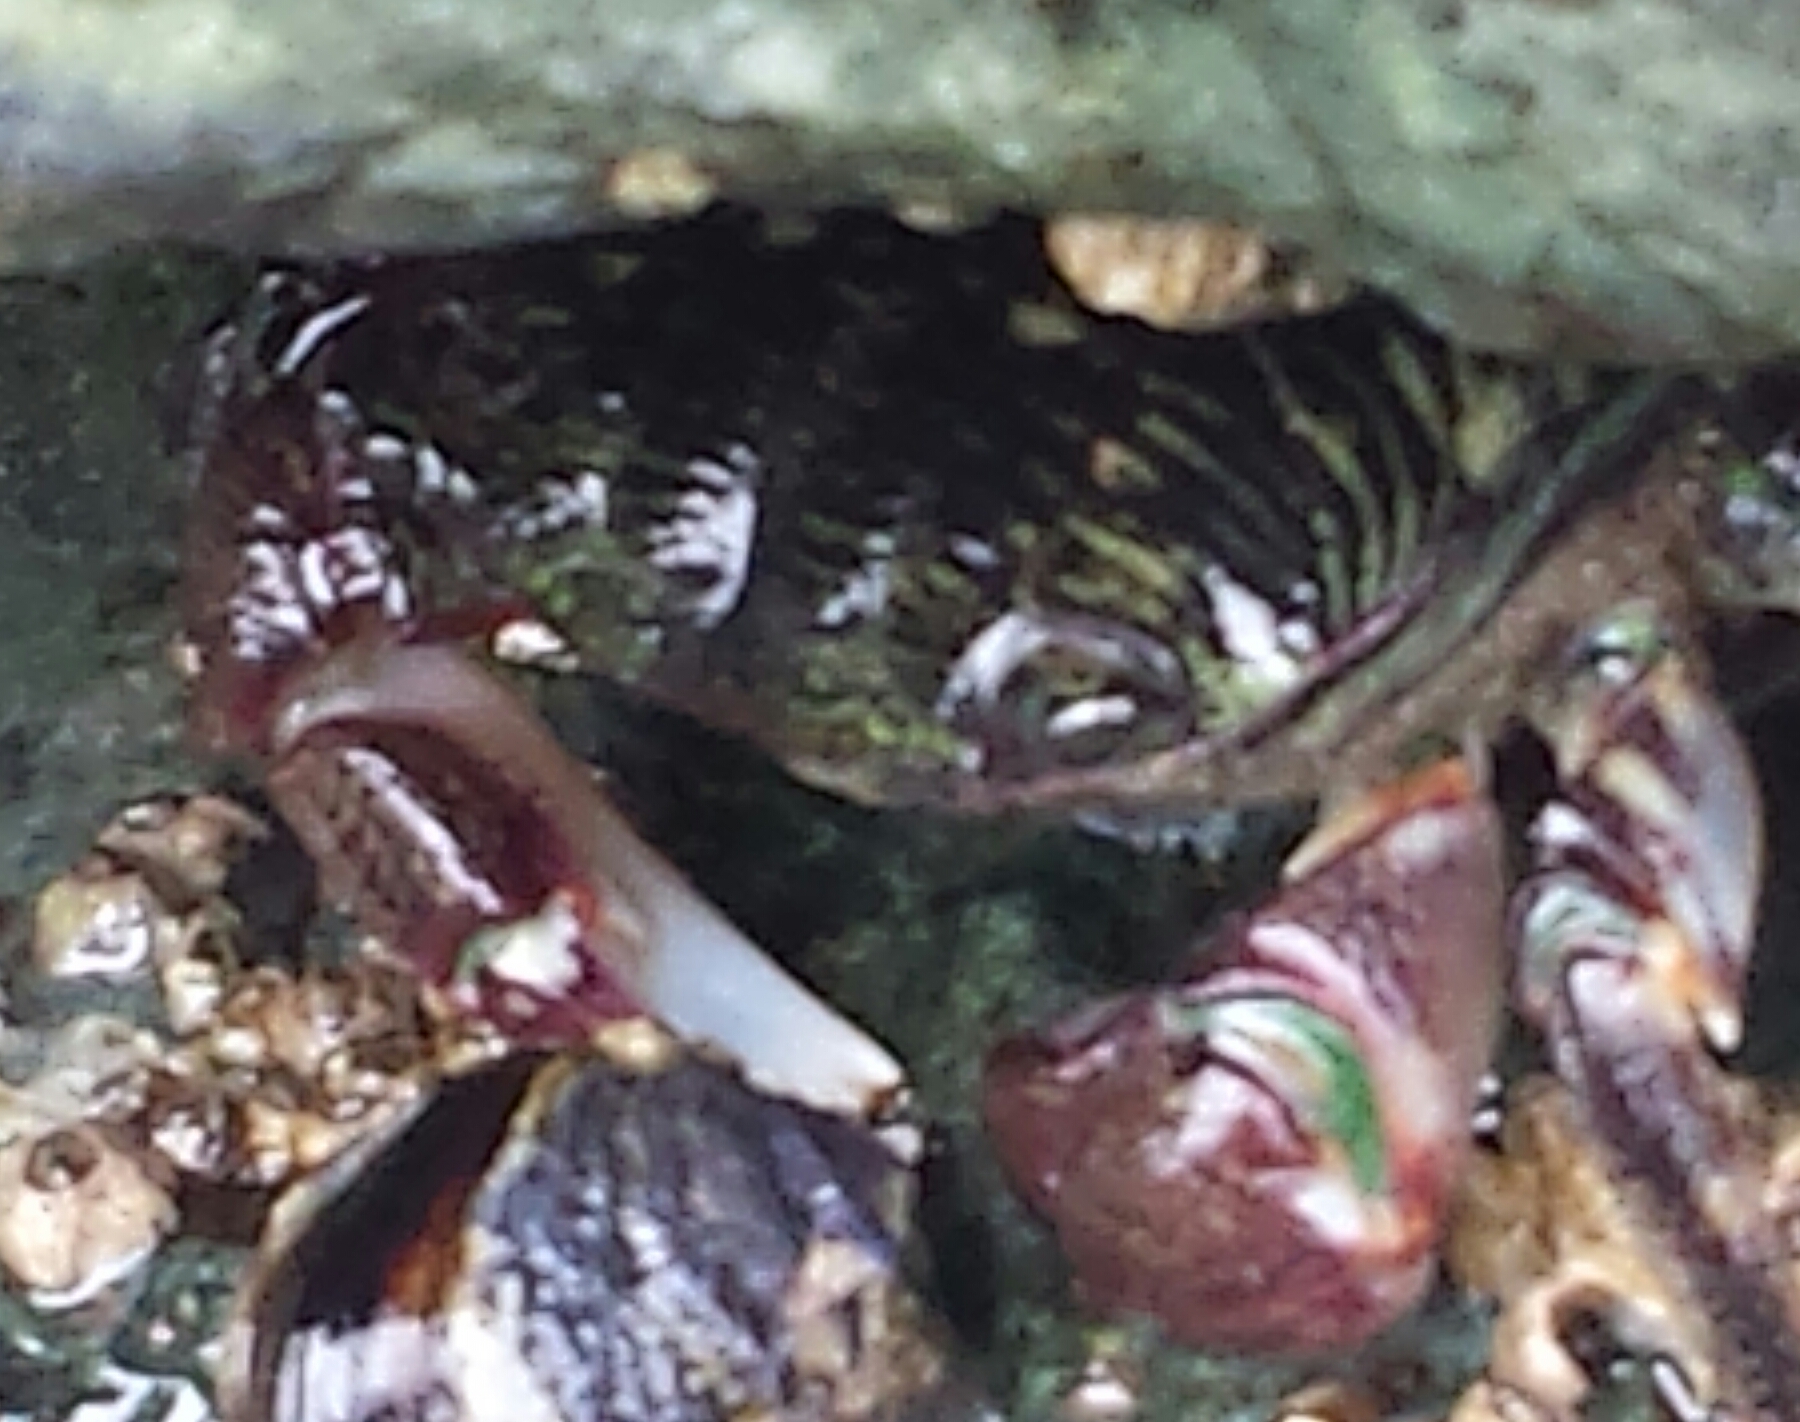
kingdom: Animalia
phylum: Arthropoda
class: Malacostraca
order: Decapoda
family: Grapsidae
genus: Pachygrapsus
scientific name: Pachygrapsus crassipes
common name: Striped shore crab
